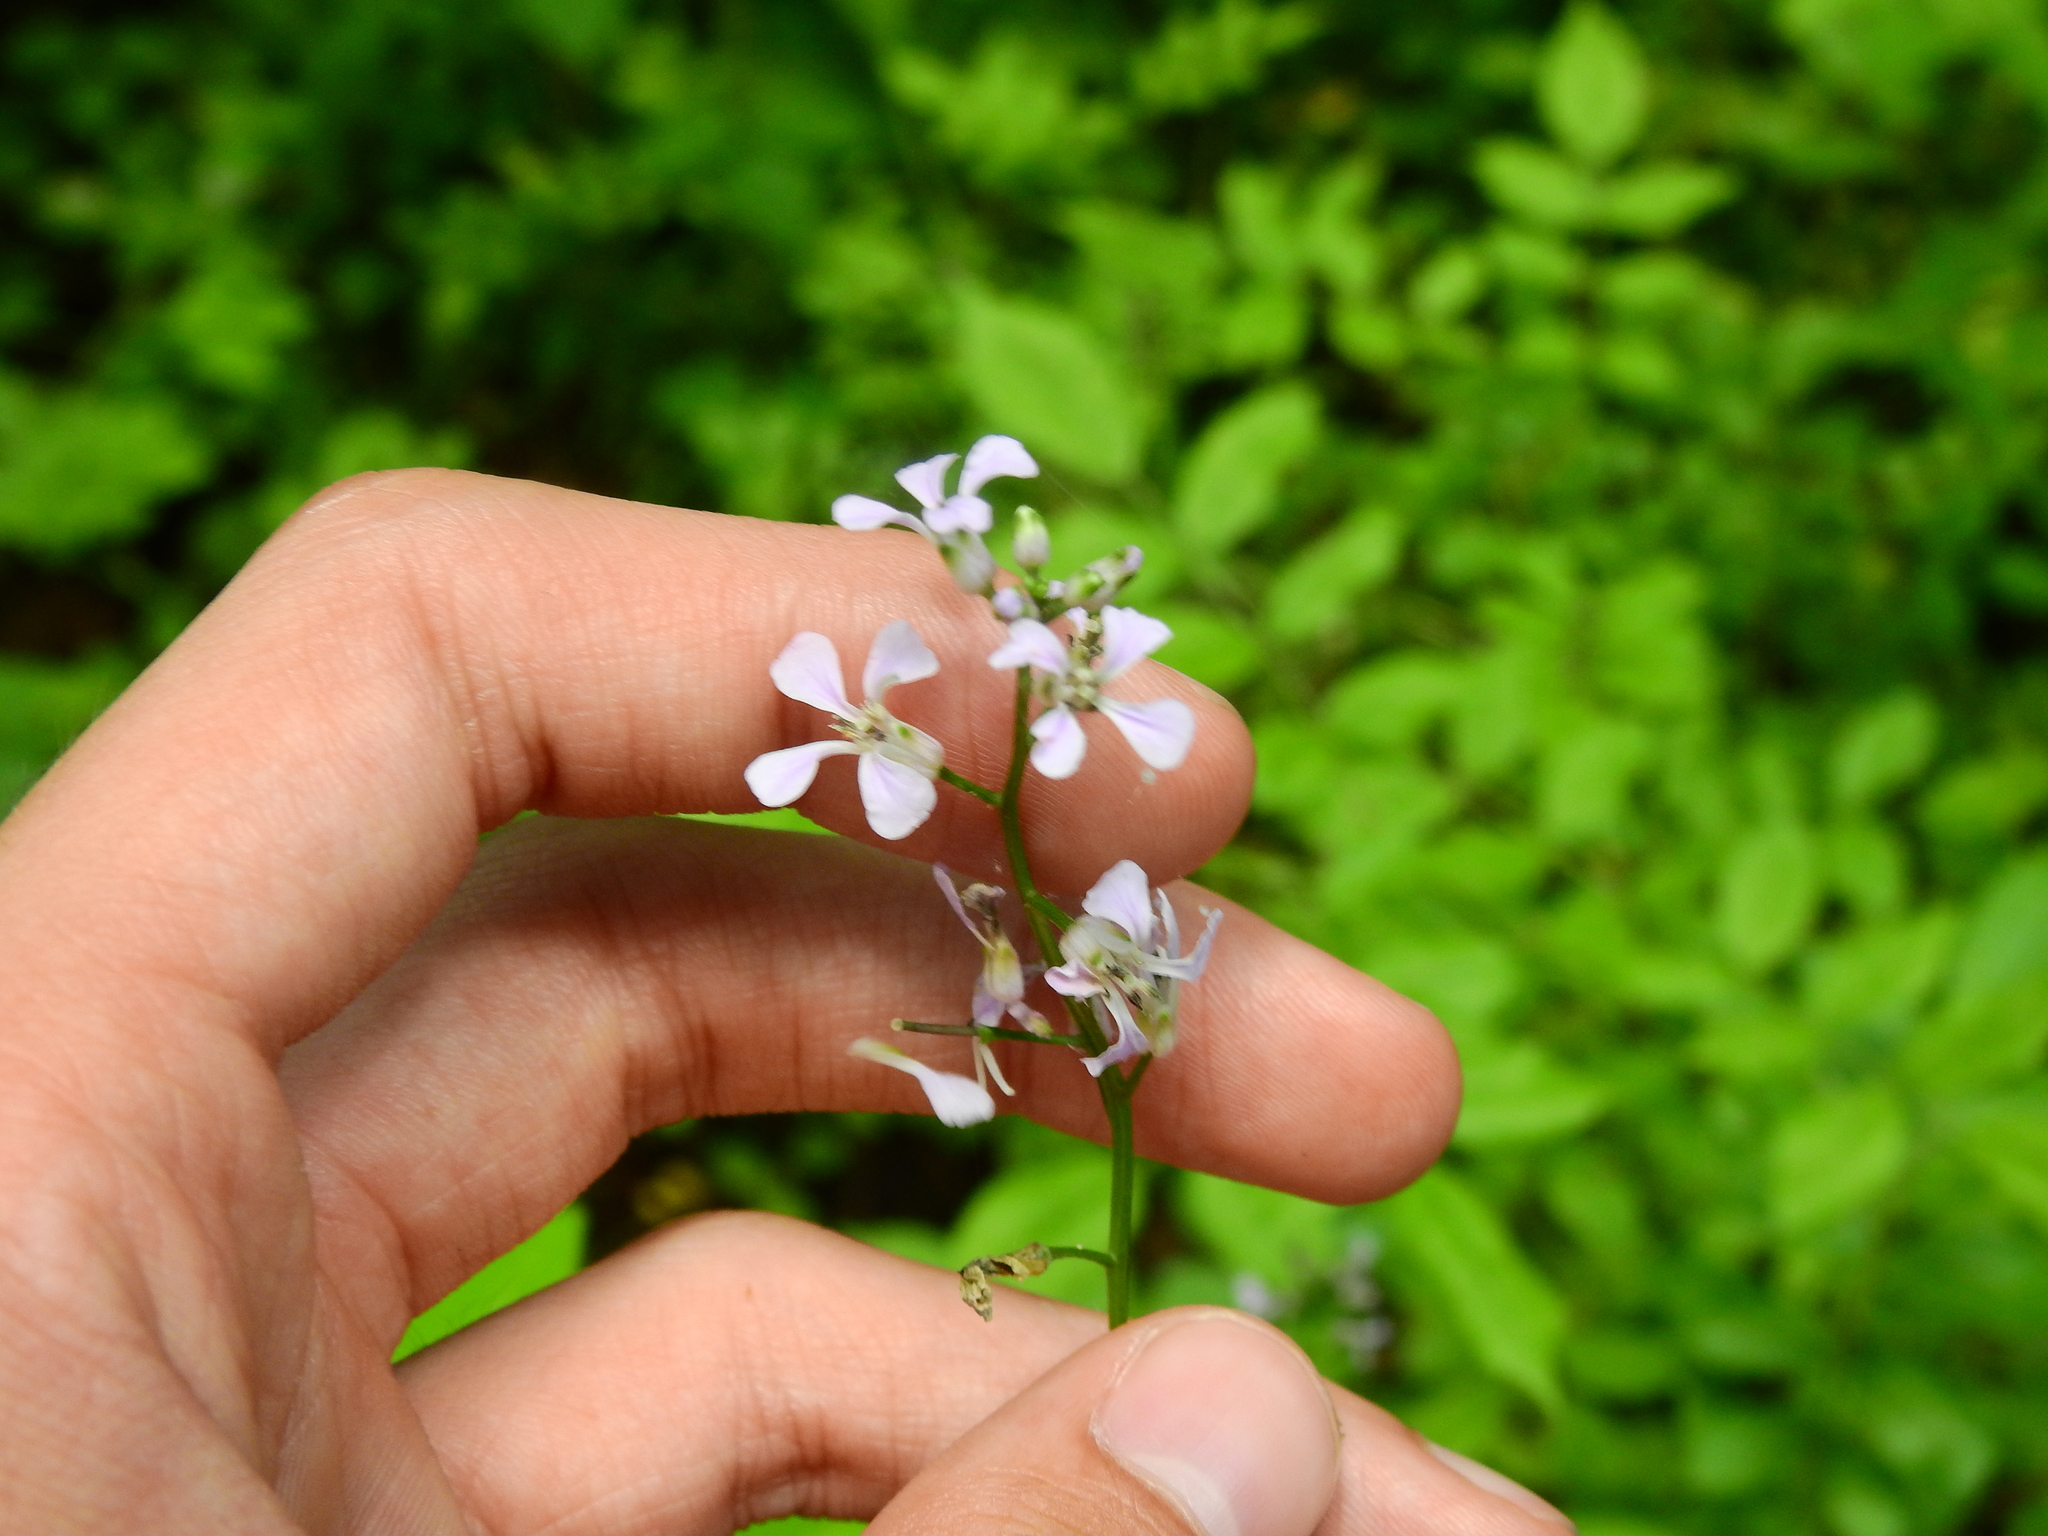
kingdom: Plantae
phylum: Tracheophyta
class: Magnoliopsida
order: Brassicales
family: Brassicaceae
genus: Iodanthus
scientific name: Iodanthus pinnatifidus
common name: Violet rocket
